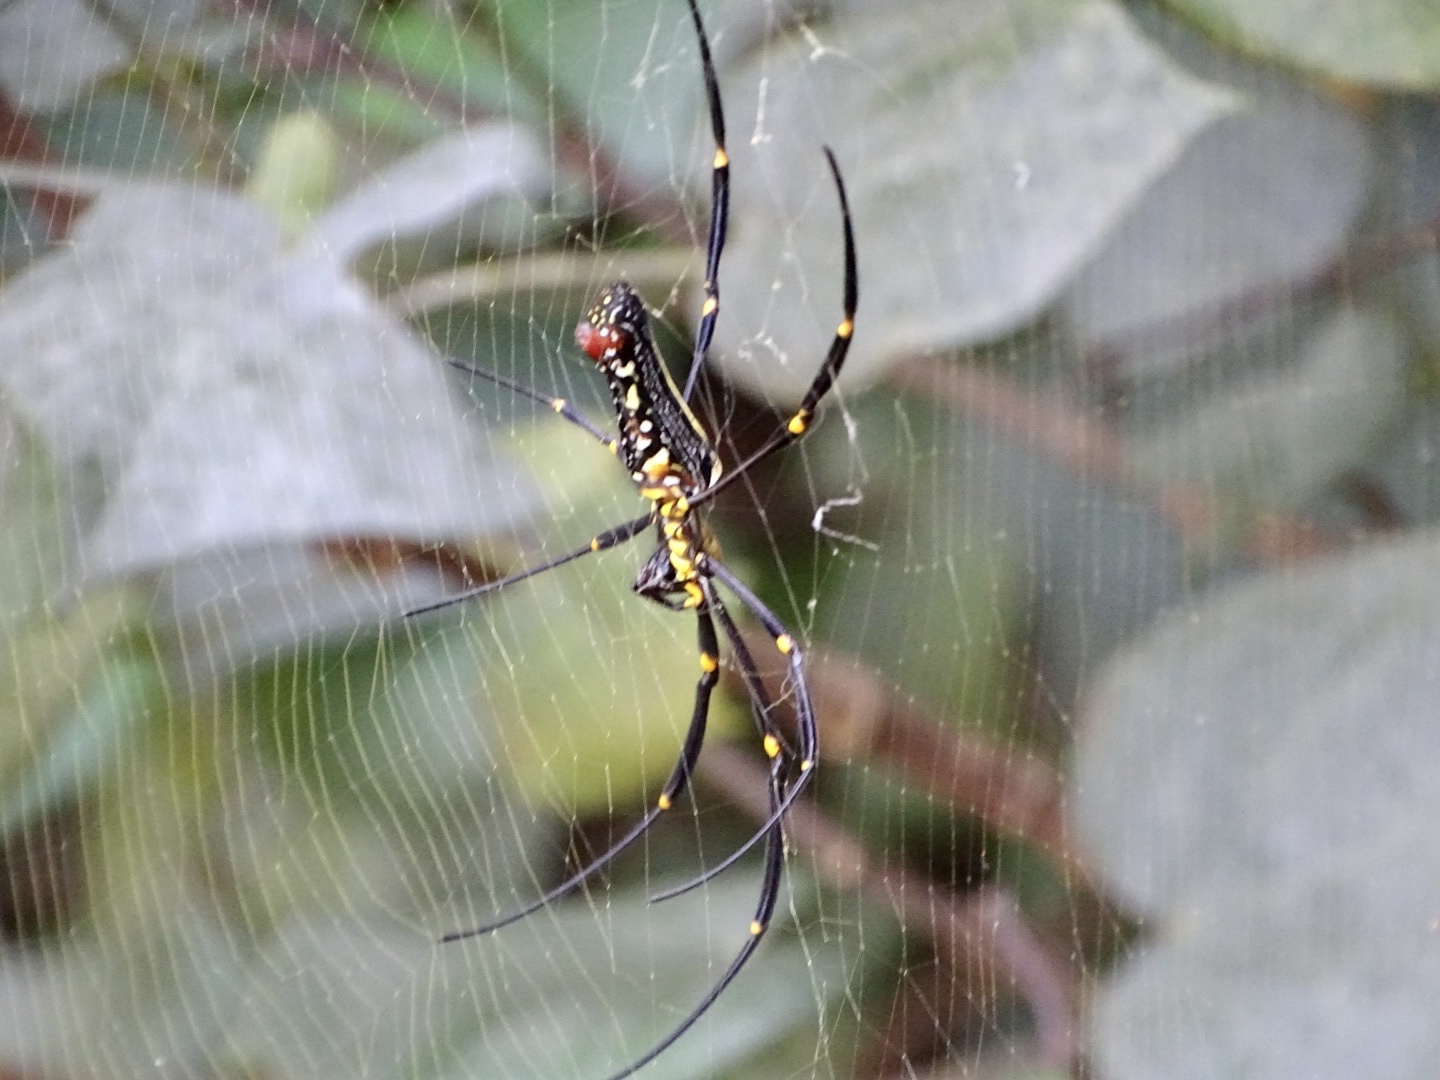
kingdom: Animalia
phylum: Arthropoda
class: Arachnida
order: Araneae
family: Araneidae
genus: Nephila
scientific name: Nephila pilipes
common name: Giant golden orb weaver
